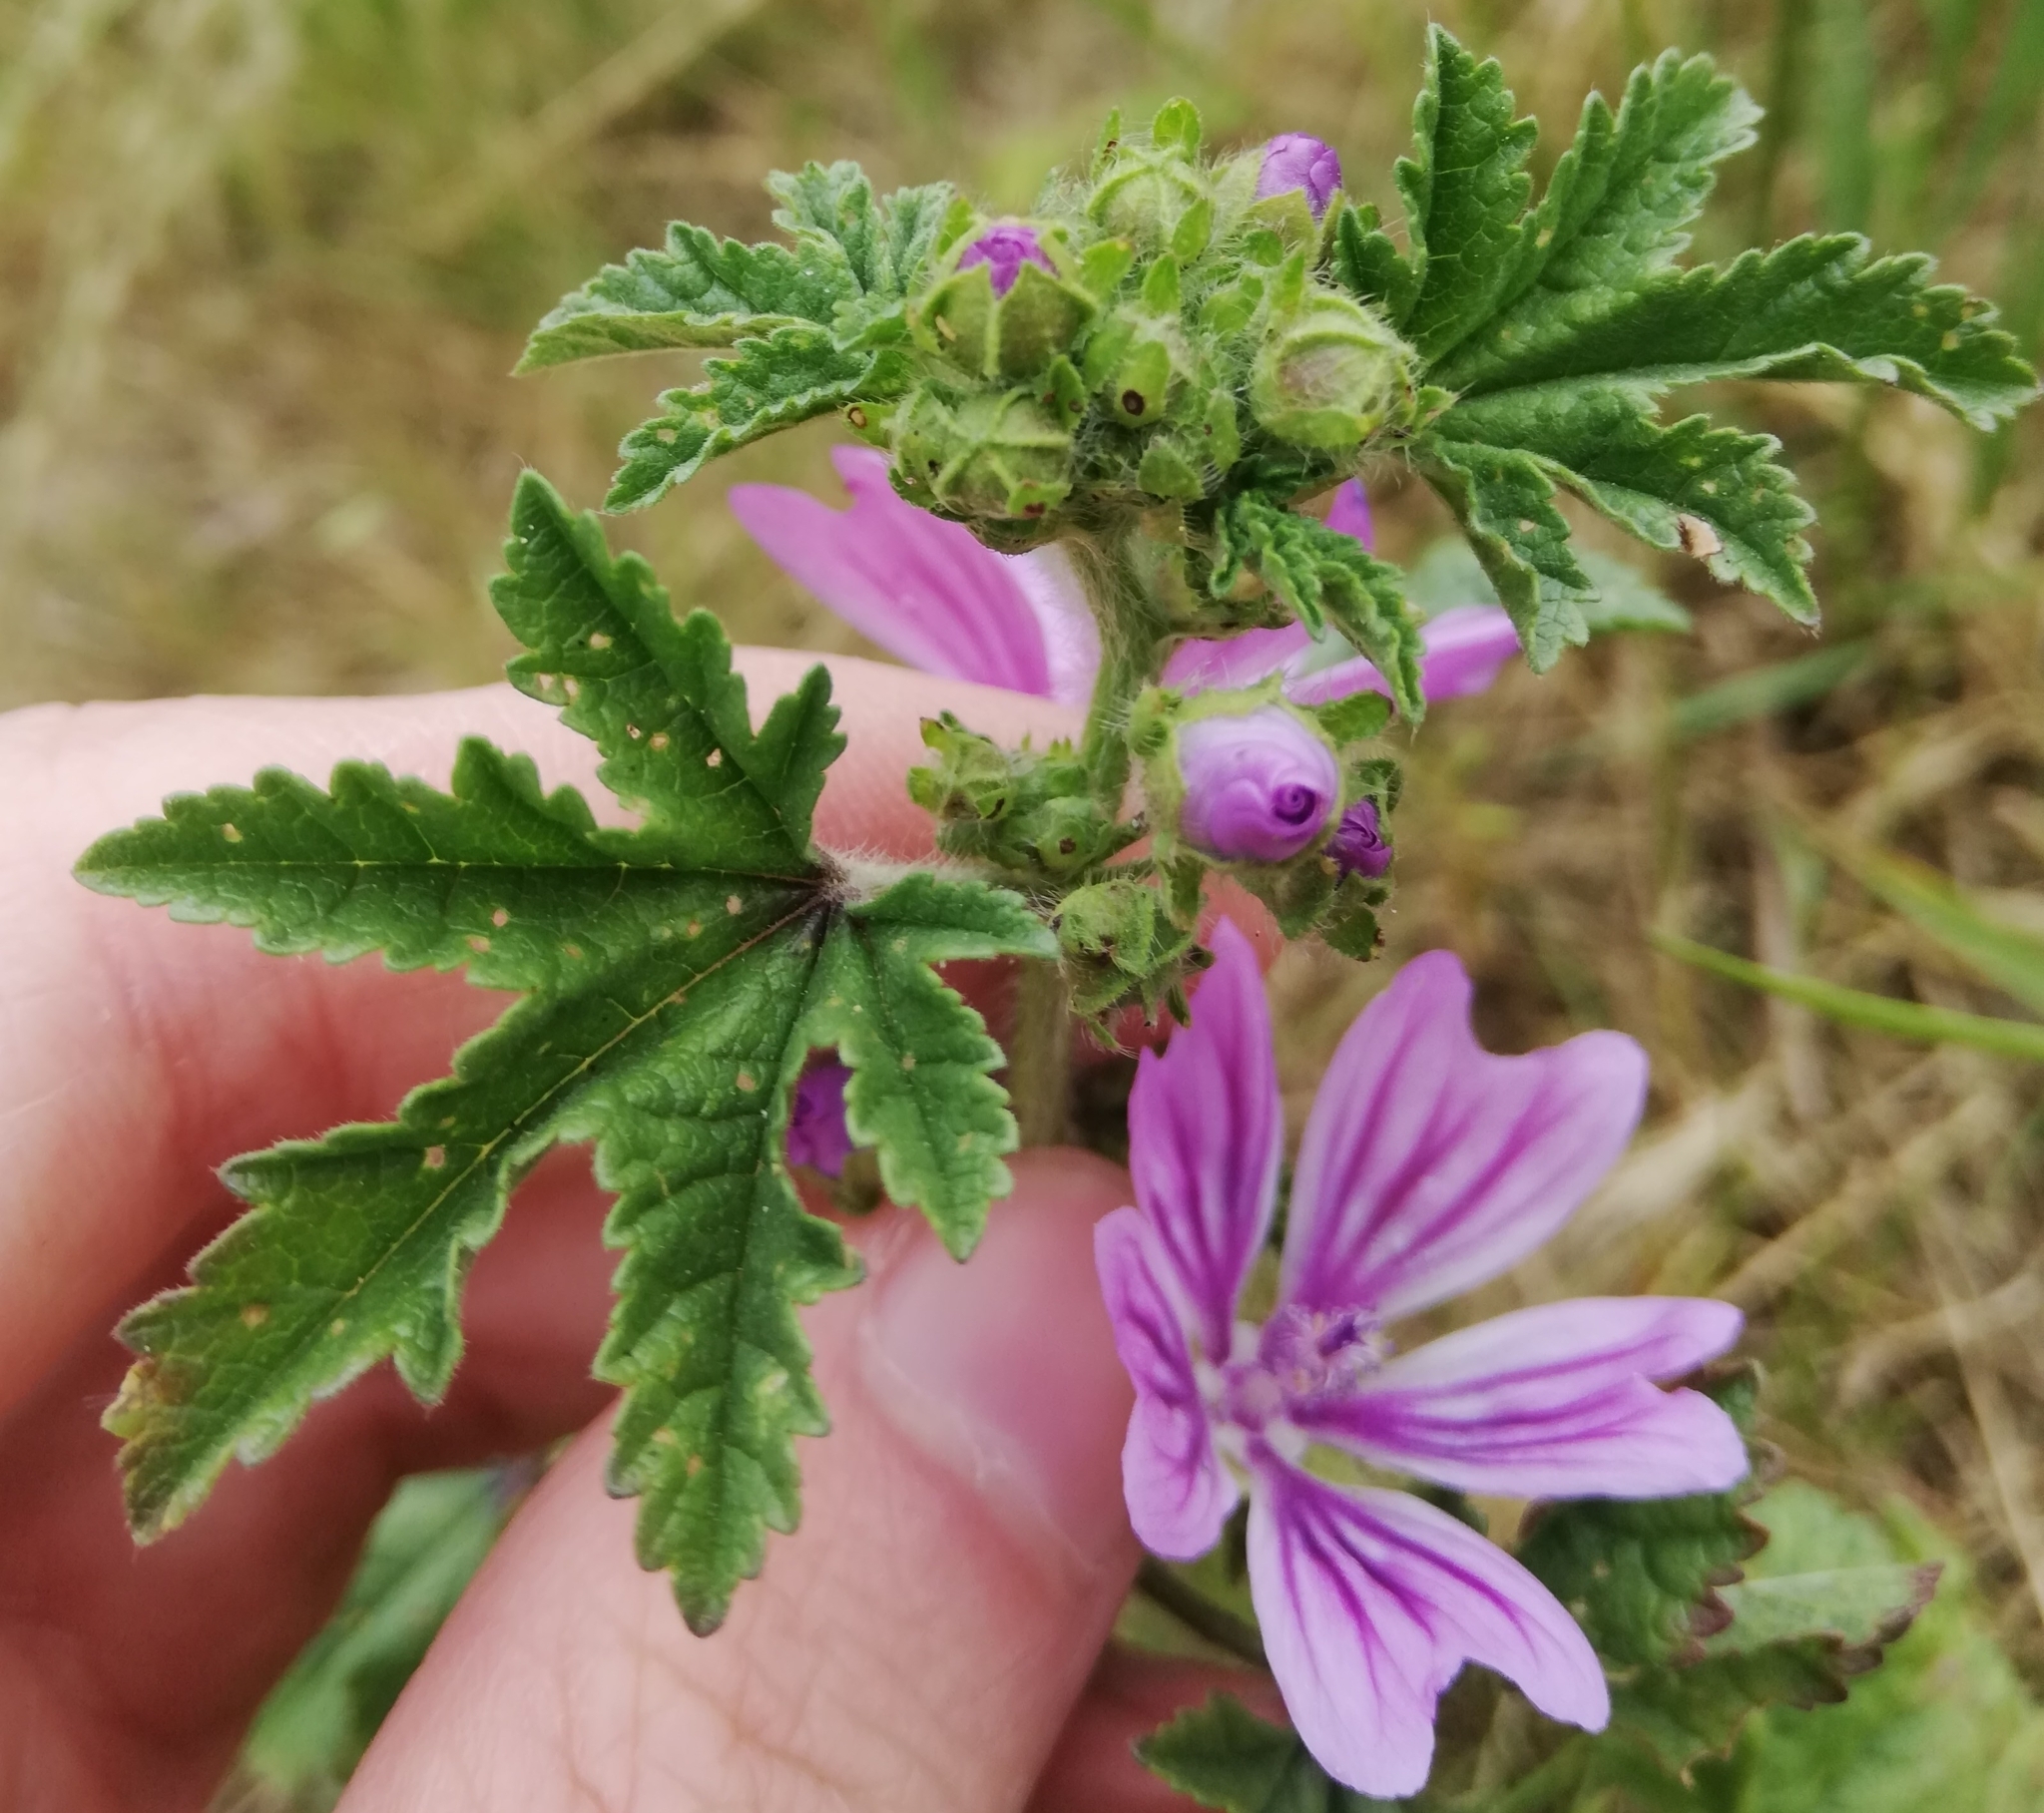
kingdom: Plantae
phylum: Tracheophyta
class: Magnoliopsida
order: Malvales
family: Malvaceae
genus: Malva
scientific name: Malva sylvestris
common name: Common mallow
